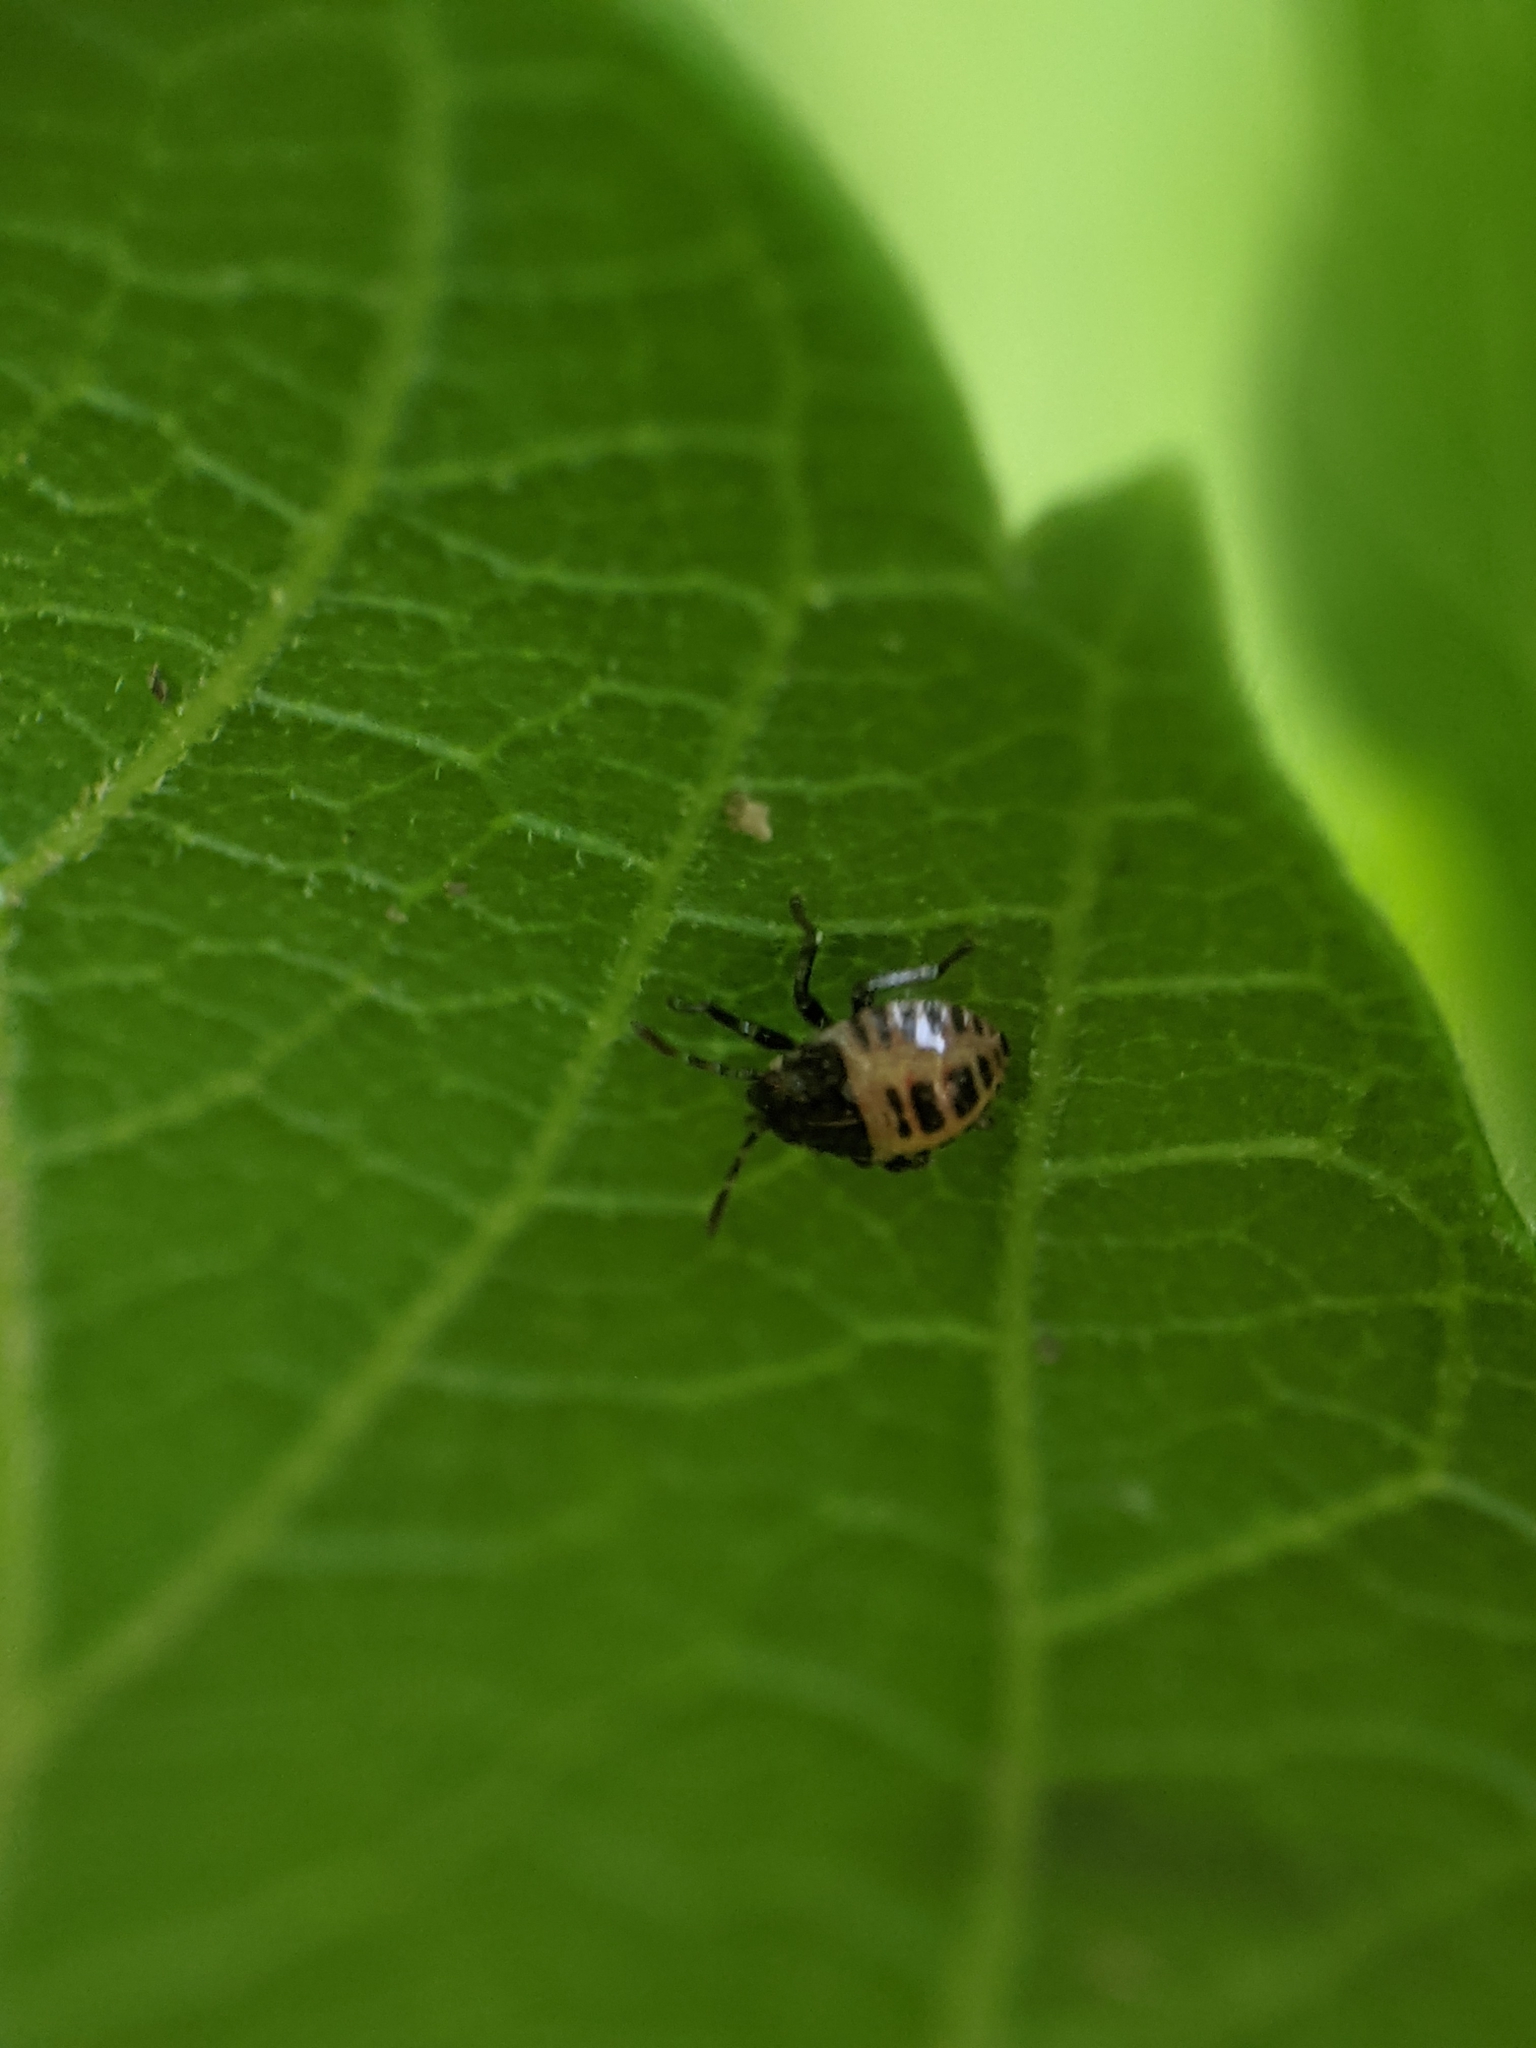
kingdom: Animalia
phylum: Arthropoda
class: Insecta
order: Hemiptera
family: Pentatomidae
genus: Halyomorpha
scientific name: Halyomorpha halys
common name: Brown marmorated stink bug
